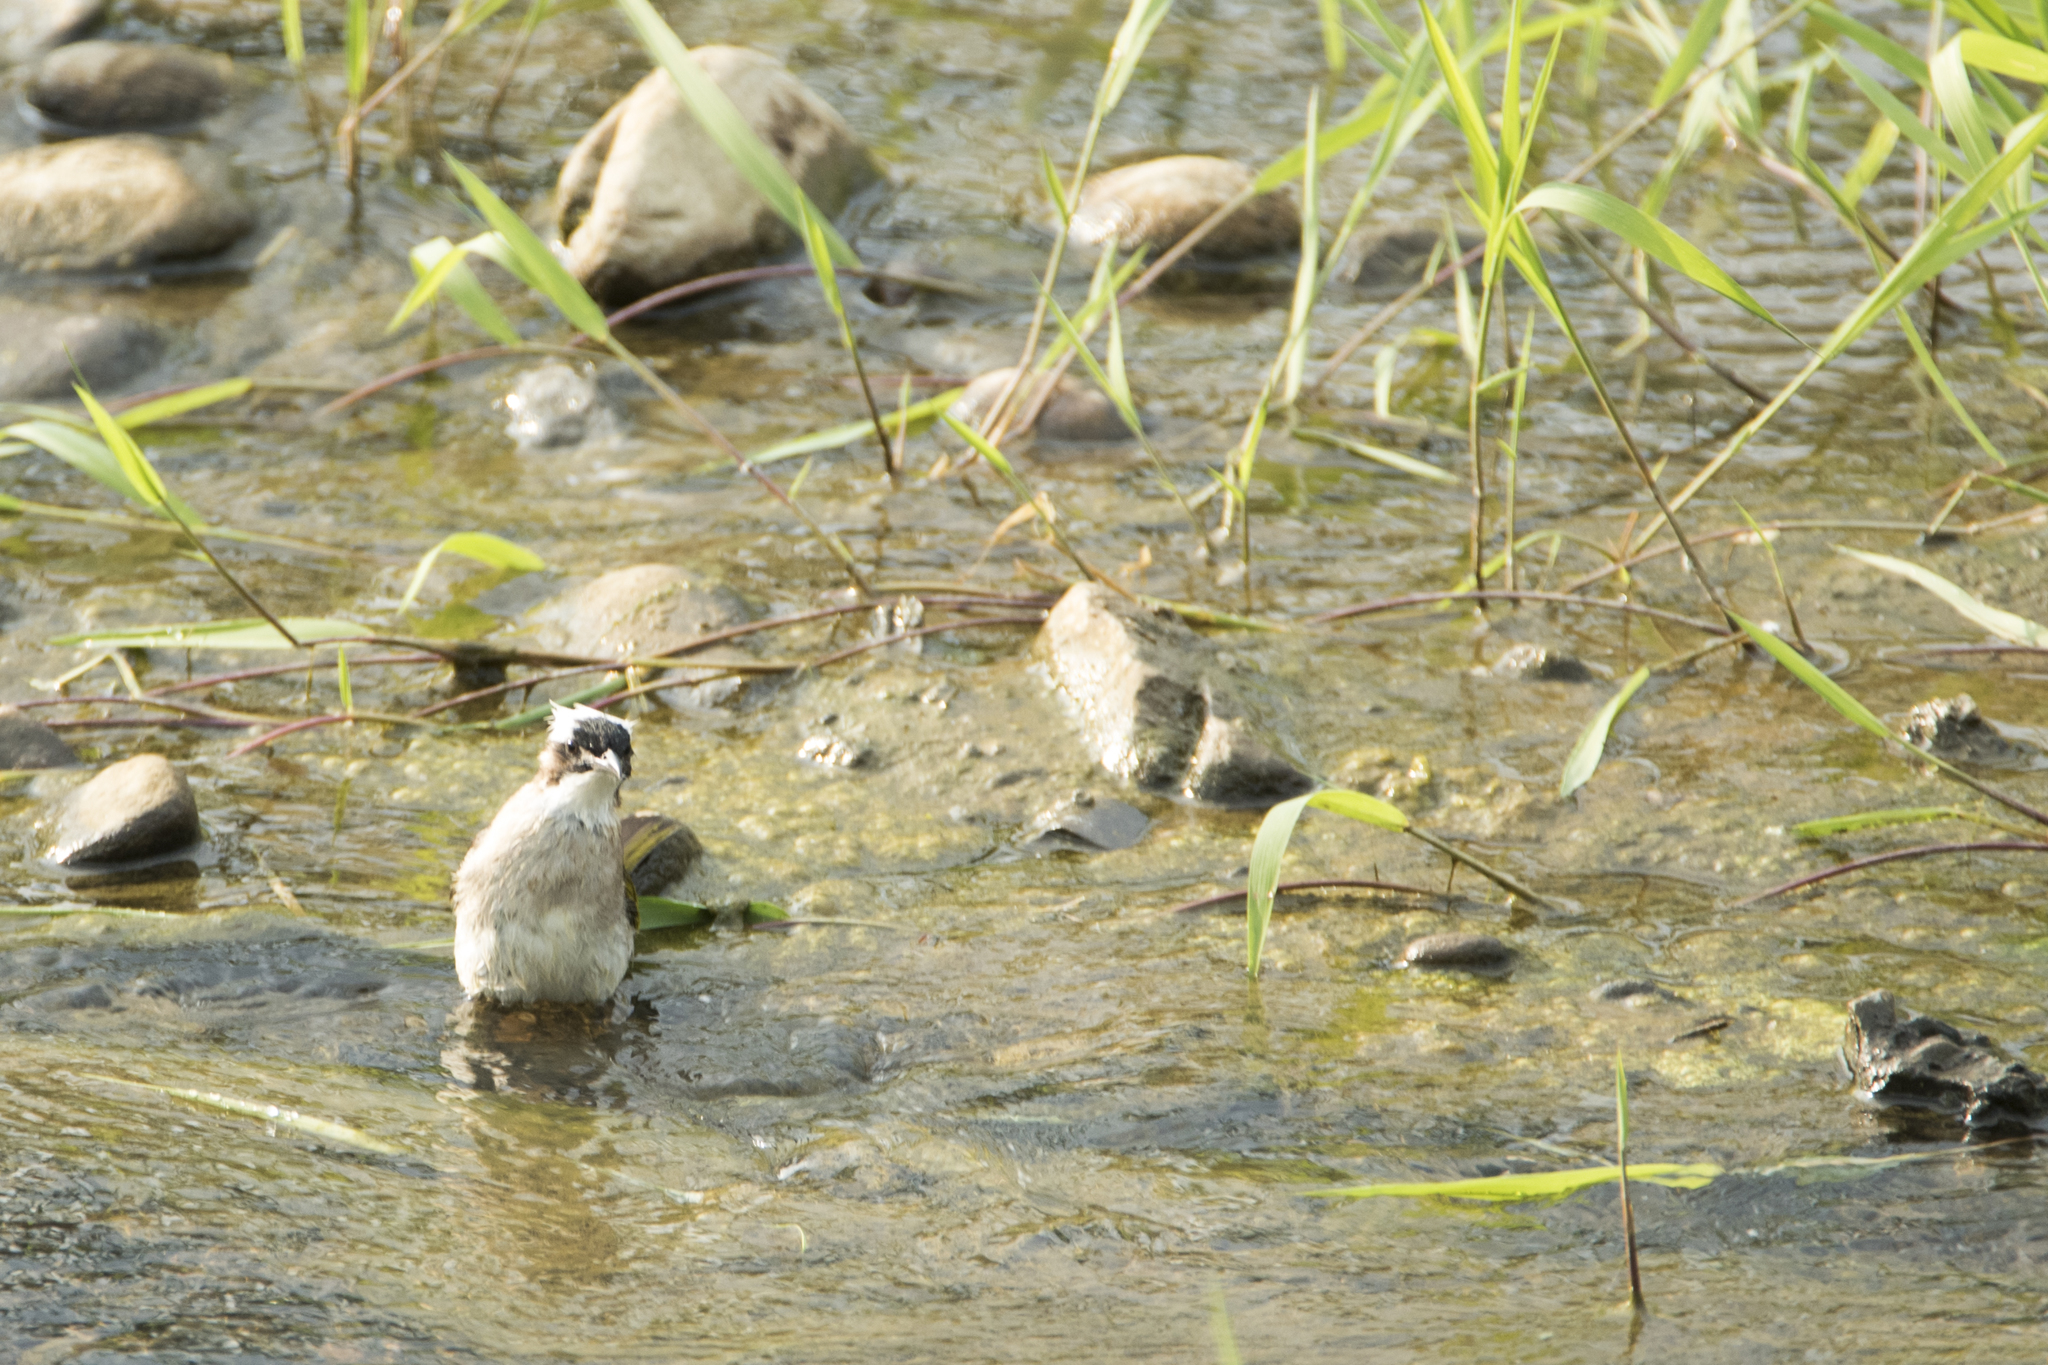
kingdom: Animalia
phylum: Chordata
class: Aves
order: Passeriformes
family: Pycnonotidae
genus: Pycnonotus
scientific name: Pycnonotus sinensis
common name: Light-vented bulbul
